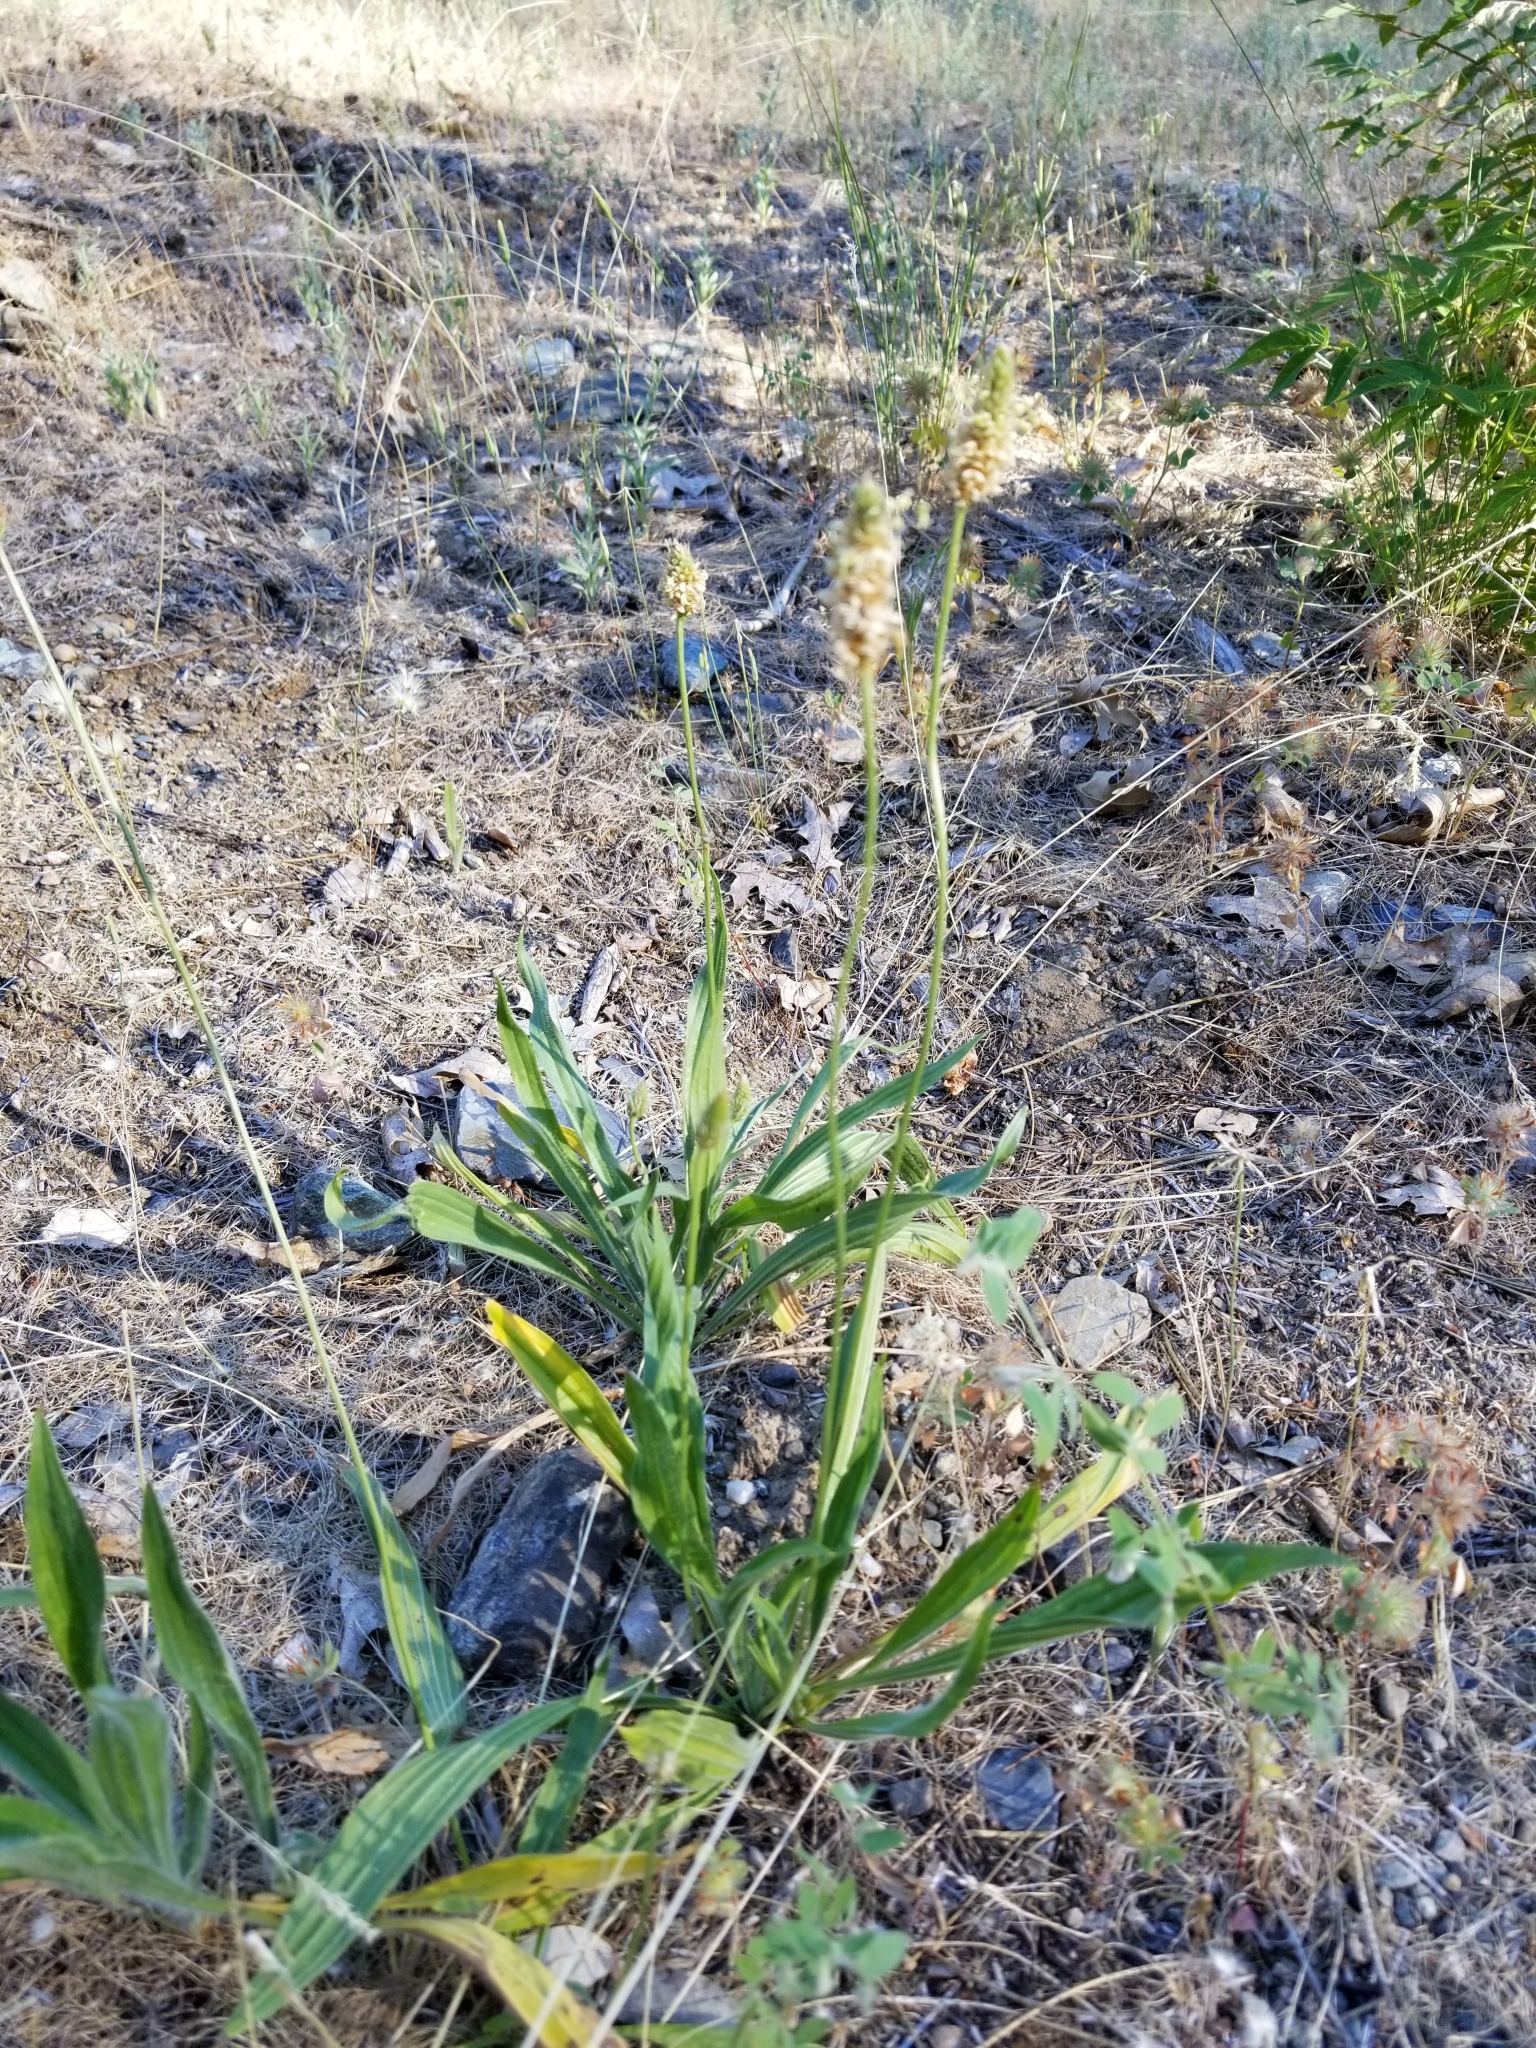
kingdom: Plantae
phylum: Tracheophyta
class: Magnoliopsida
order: Lamiales
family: Plantaginaceae
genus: Plantago
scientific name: Plantago lanceolata
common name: Ribwort plantain
